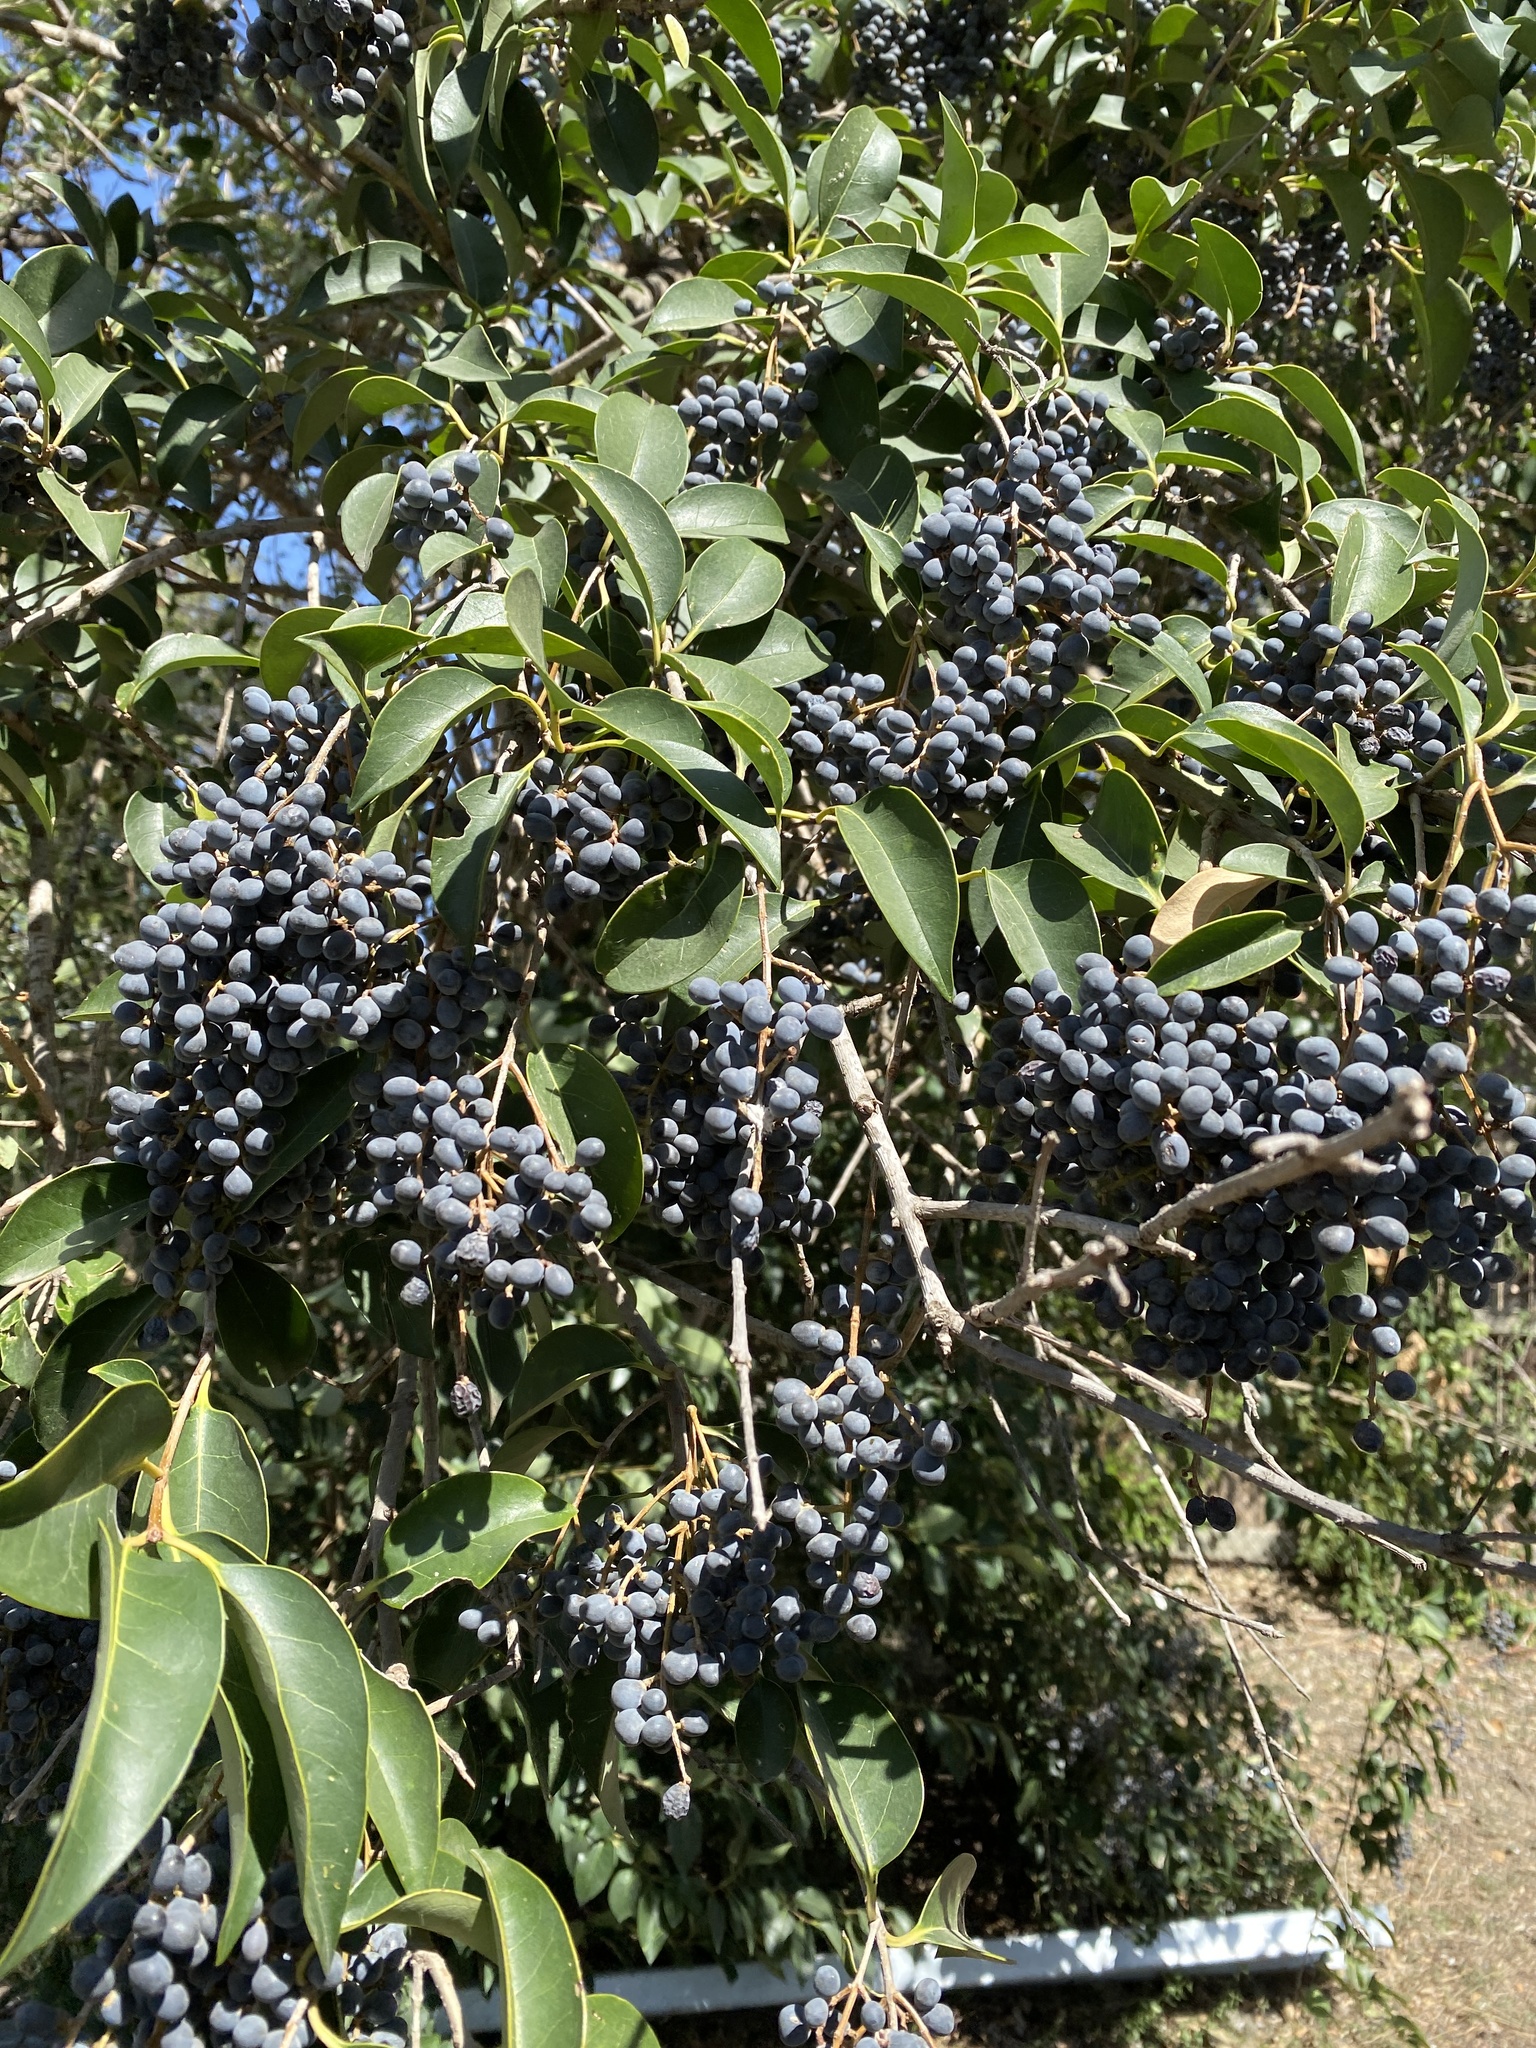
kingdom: Plantae
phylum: Tracheophyta
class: Magnoliopsida
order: Lamiales
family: Oleaceae
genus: Ligustrum
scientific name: Ligustrum lucidum
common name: Glossy privet
